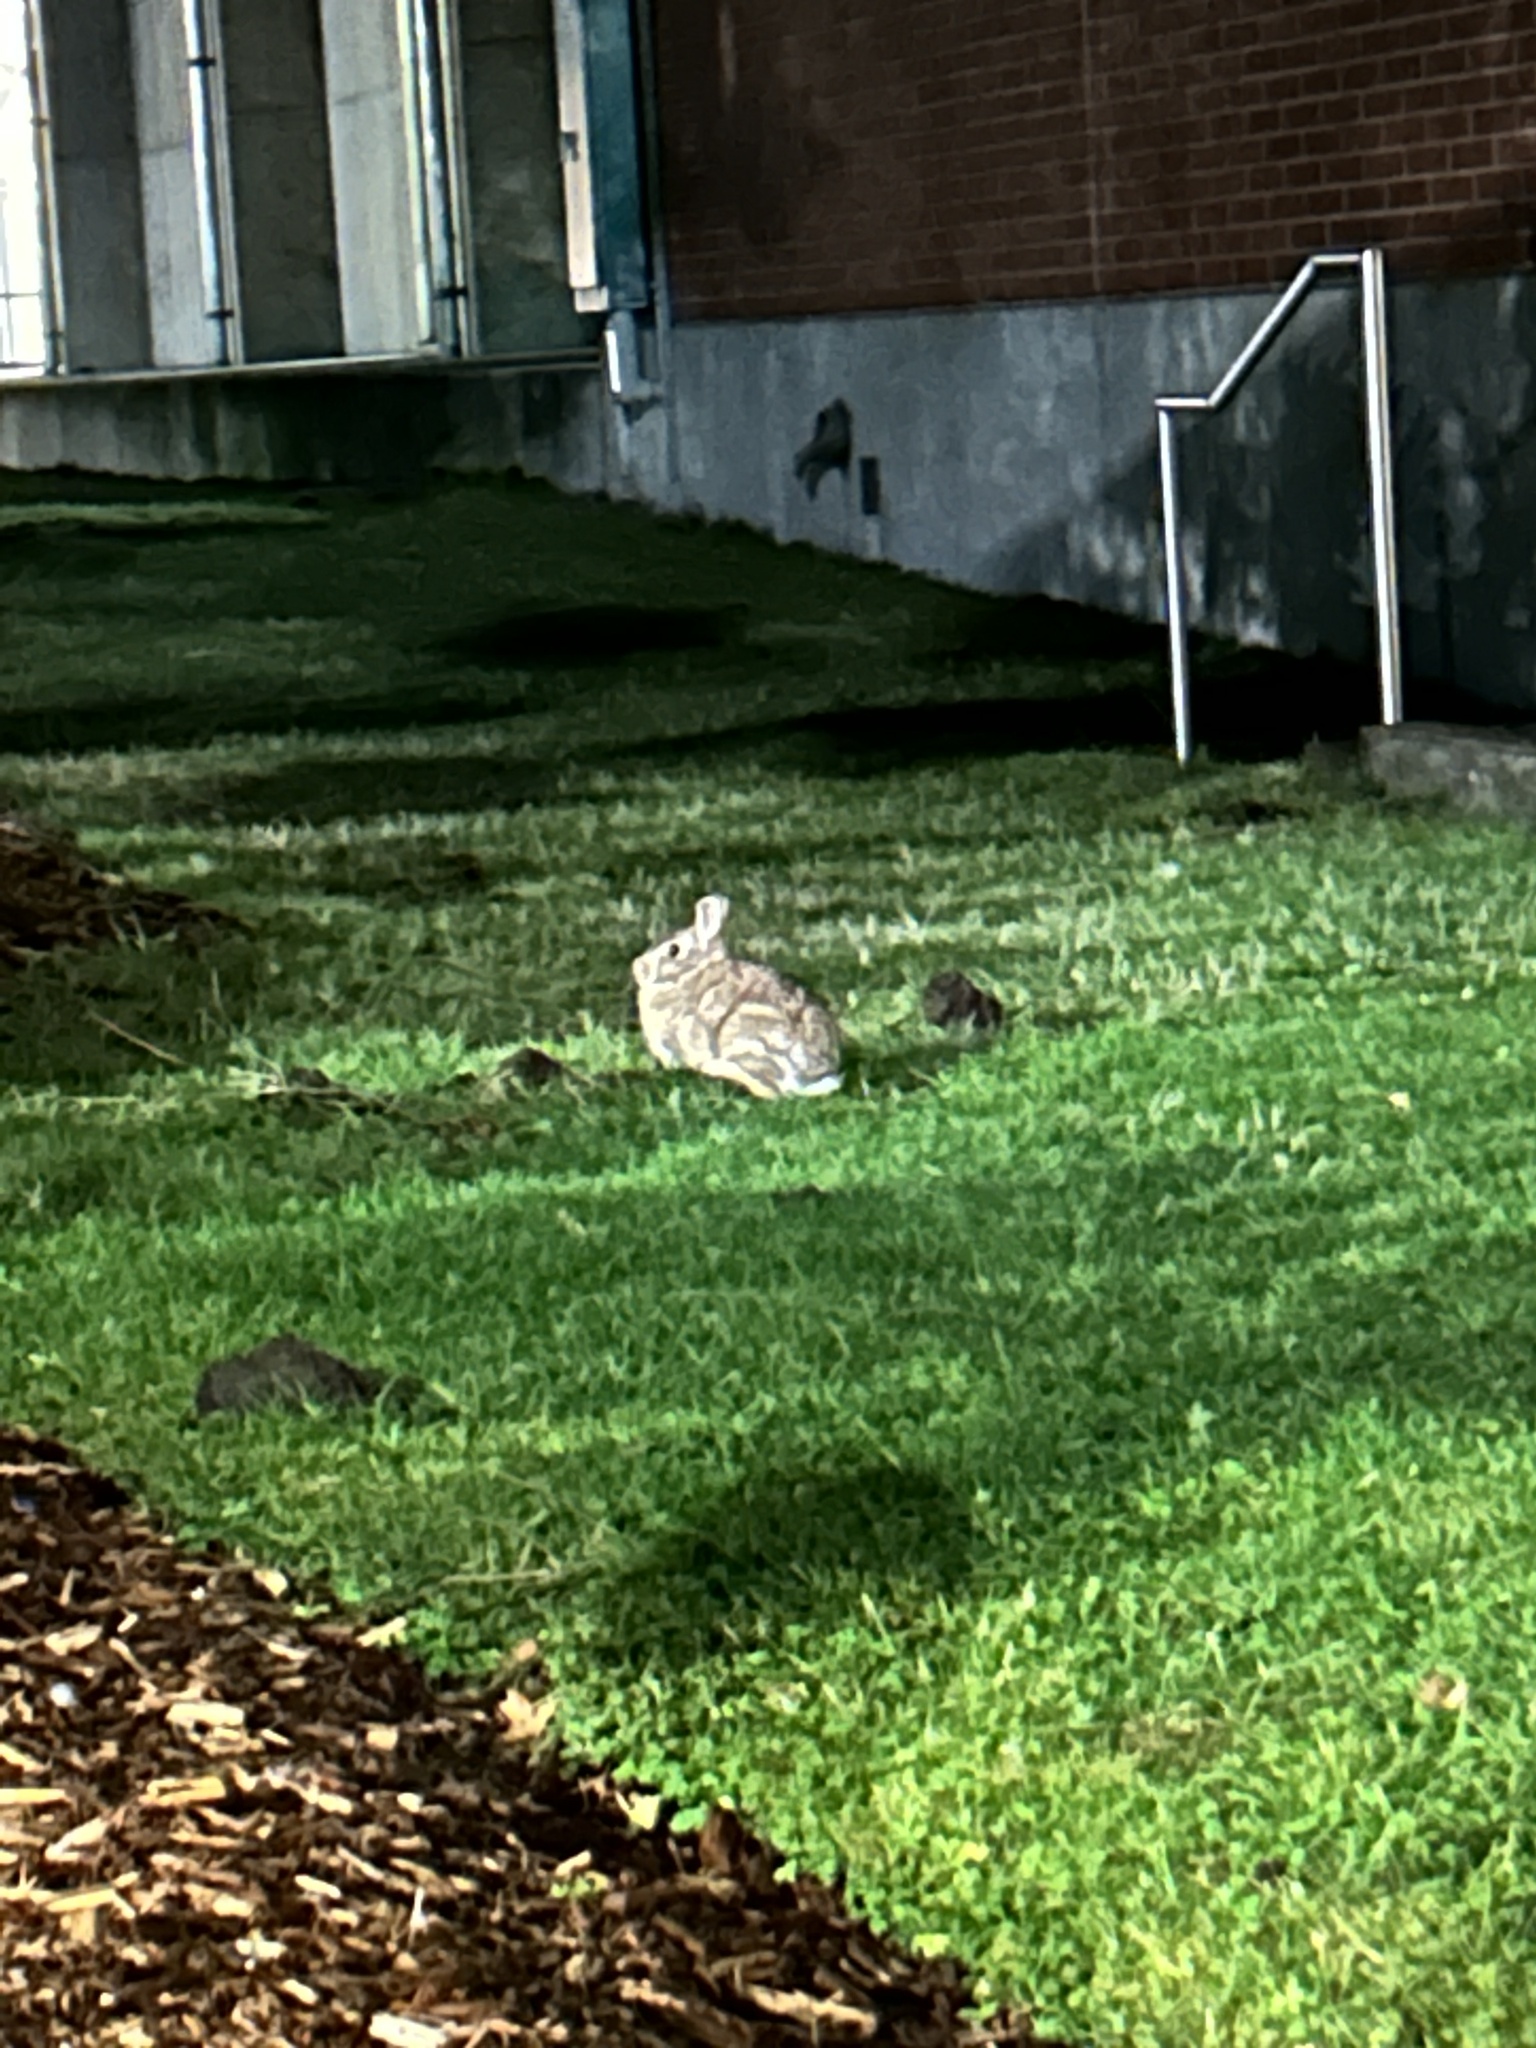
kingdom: Animalia
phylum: Chordata
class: Mammalia
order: Lagomorpha
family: Leporidae
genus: Sylvilagus
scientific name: Sylvilagus floridanus
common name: Eastern cottontail
